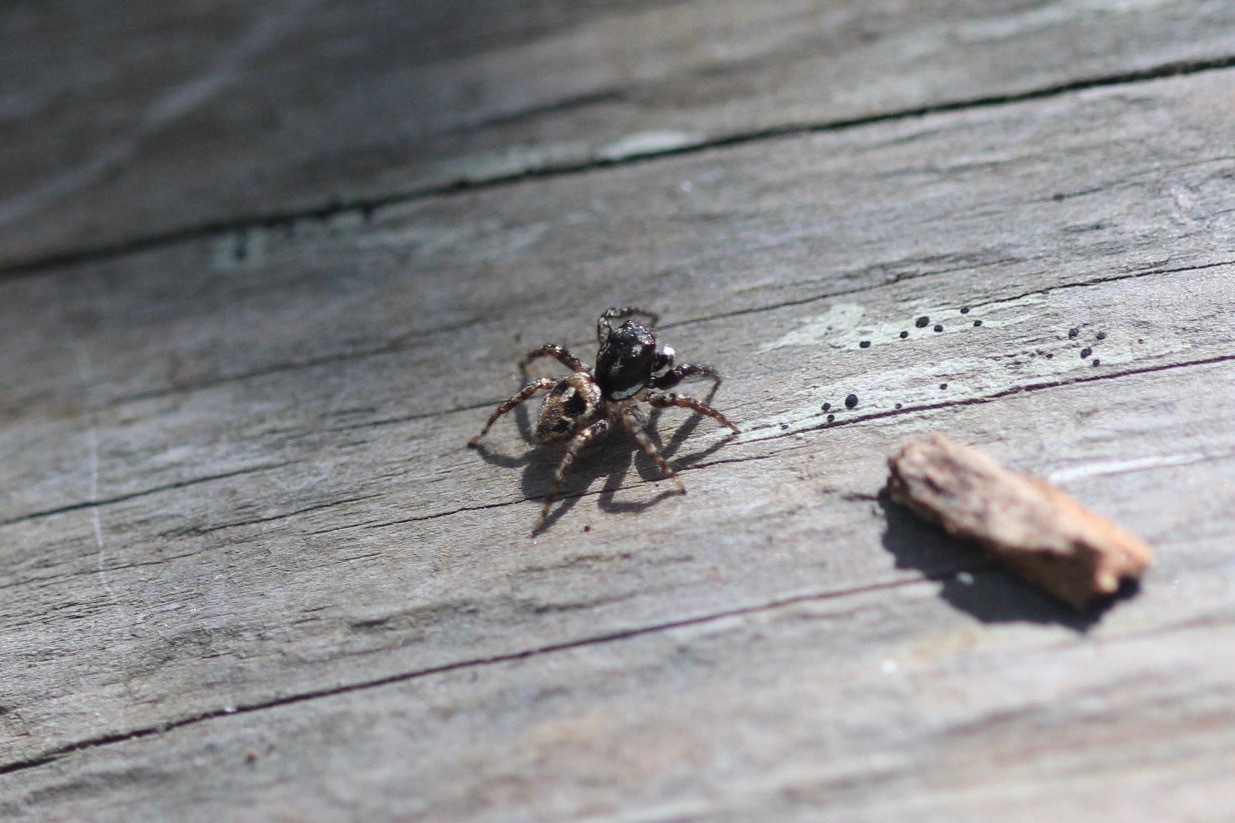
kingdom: Animalia
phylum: Arthropoda
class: Arachnida
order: Araneae
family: Salticidae
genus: Anasaitis
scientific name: Anasaitis canosa
